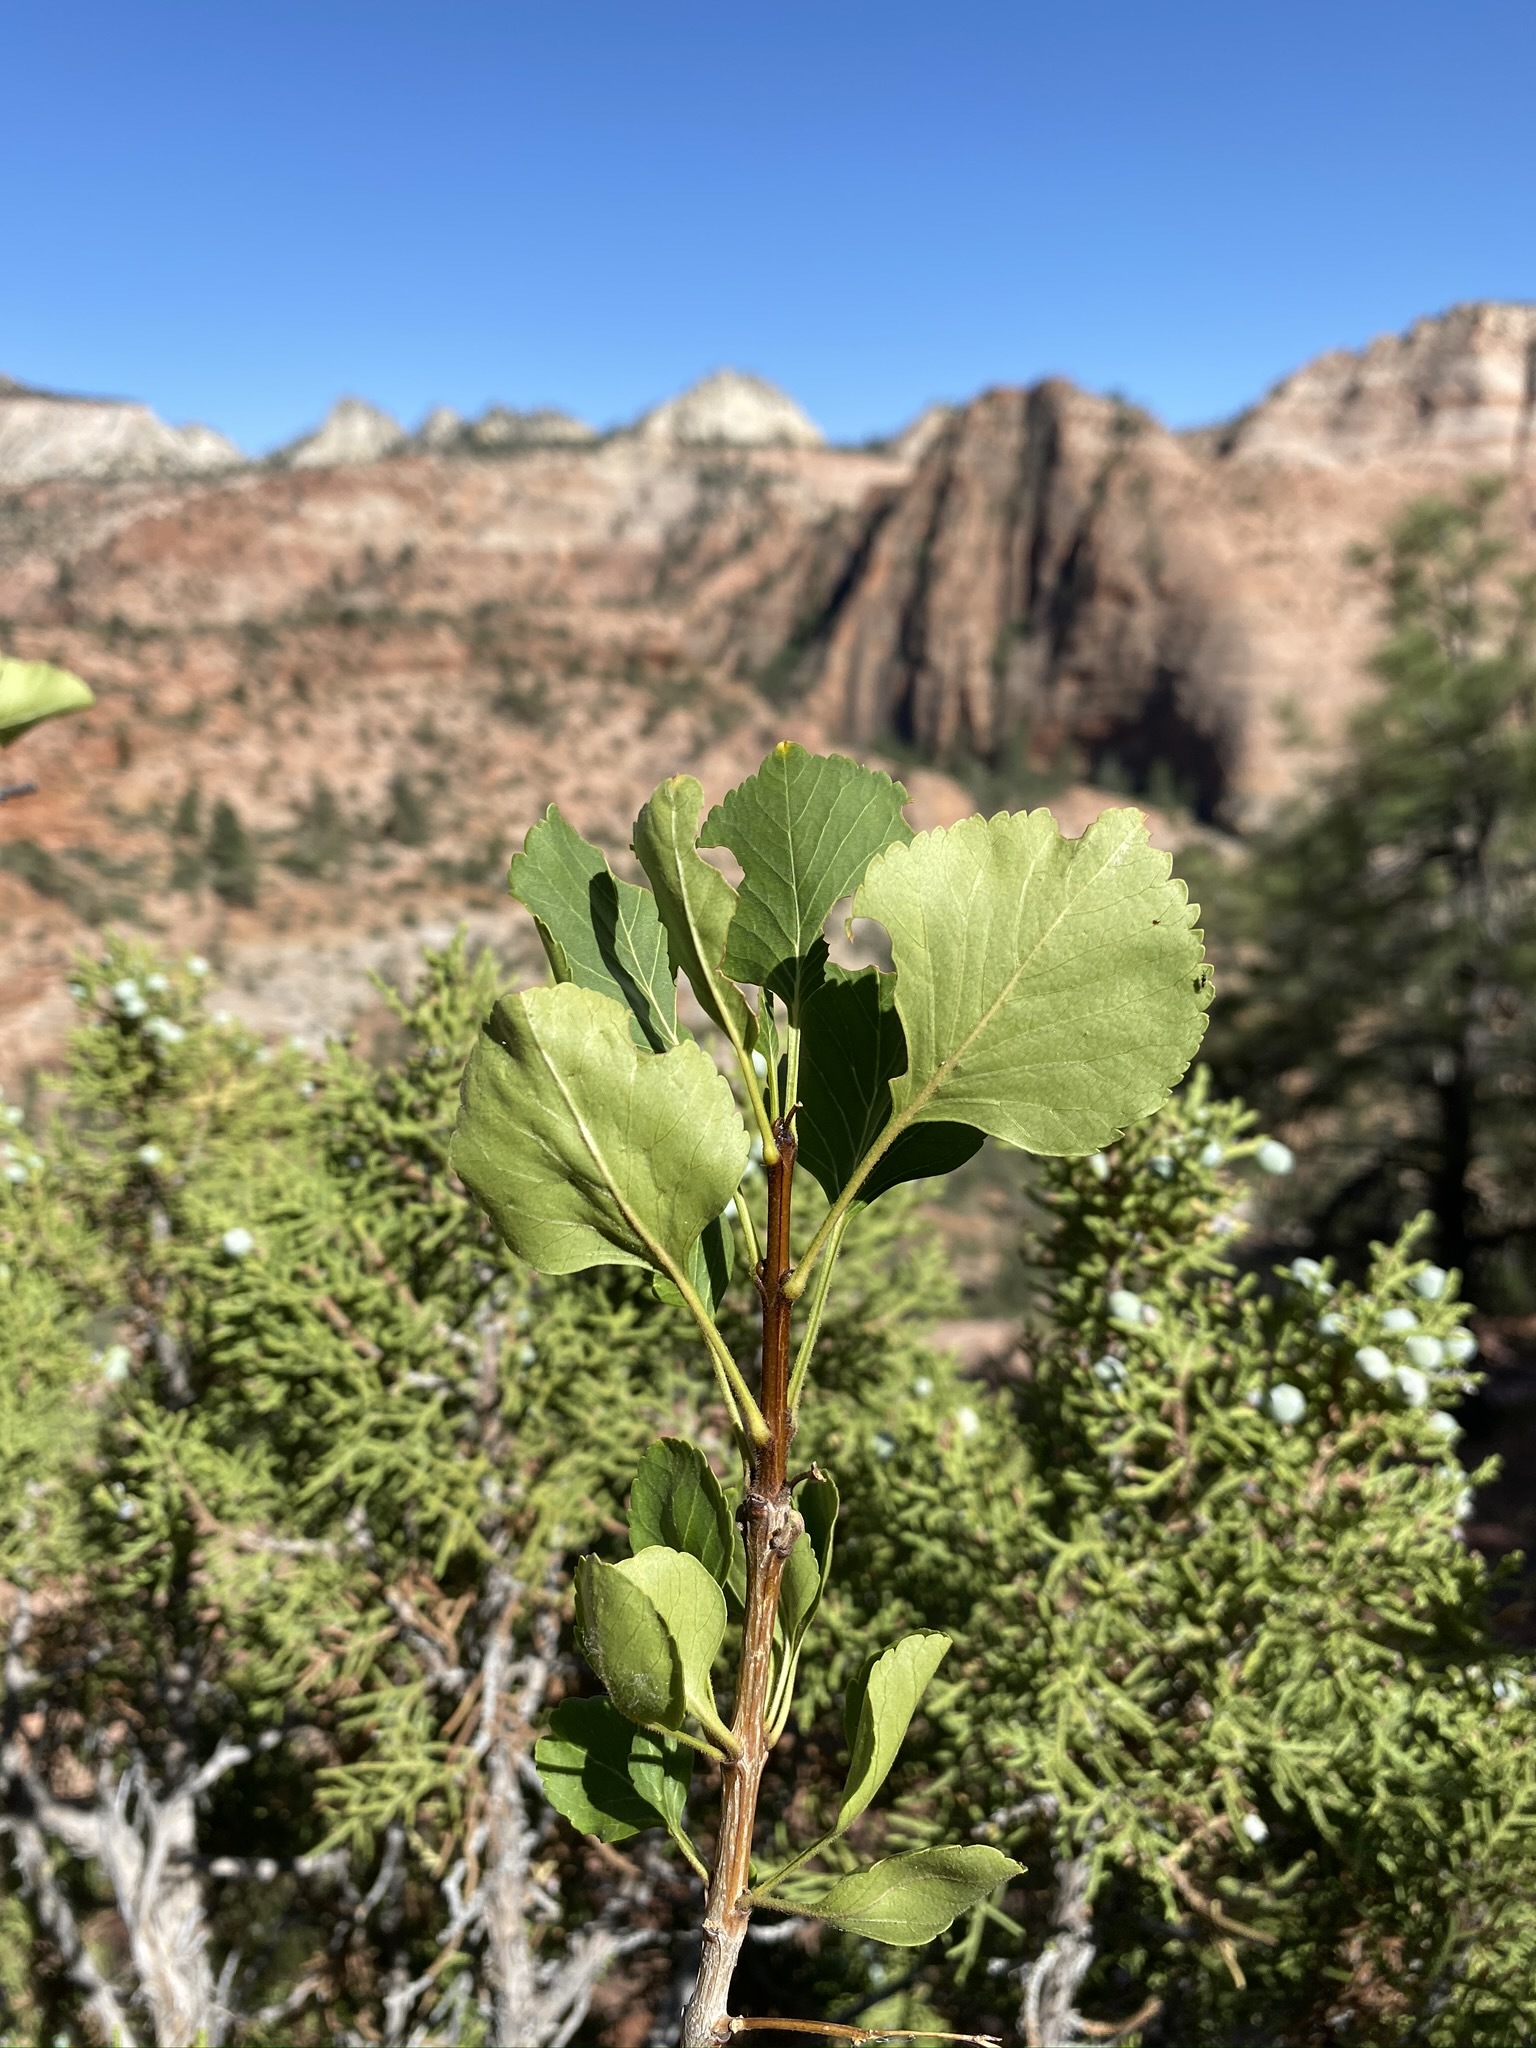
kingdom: Plantae
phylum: Tracheophyta
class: Magnoliopsida
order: Lamiales
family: Oleaceae
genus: Fraxinus
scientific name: Fraxinus anomala
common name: Utah ash
